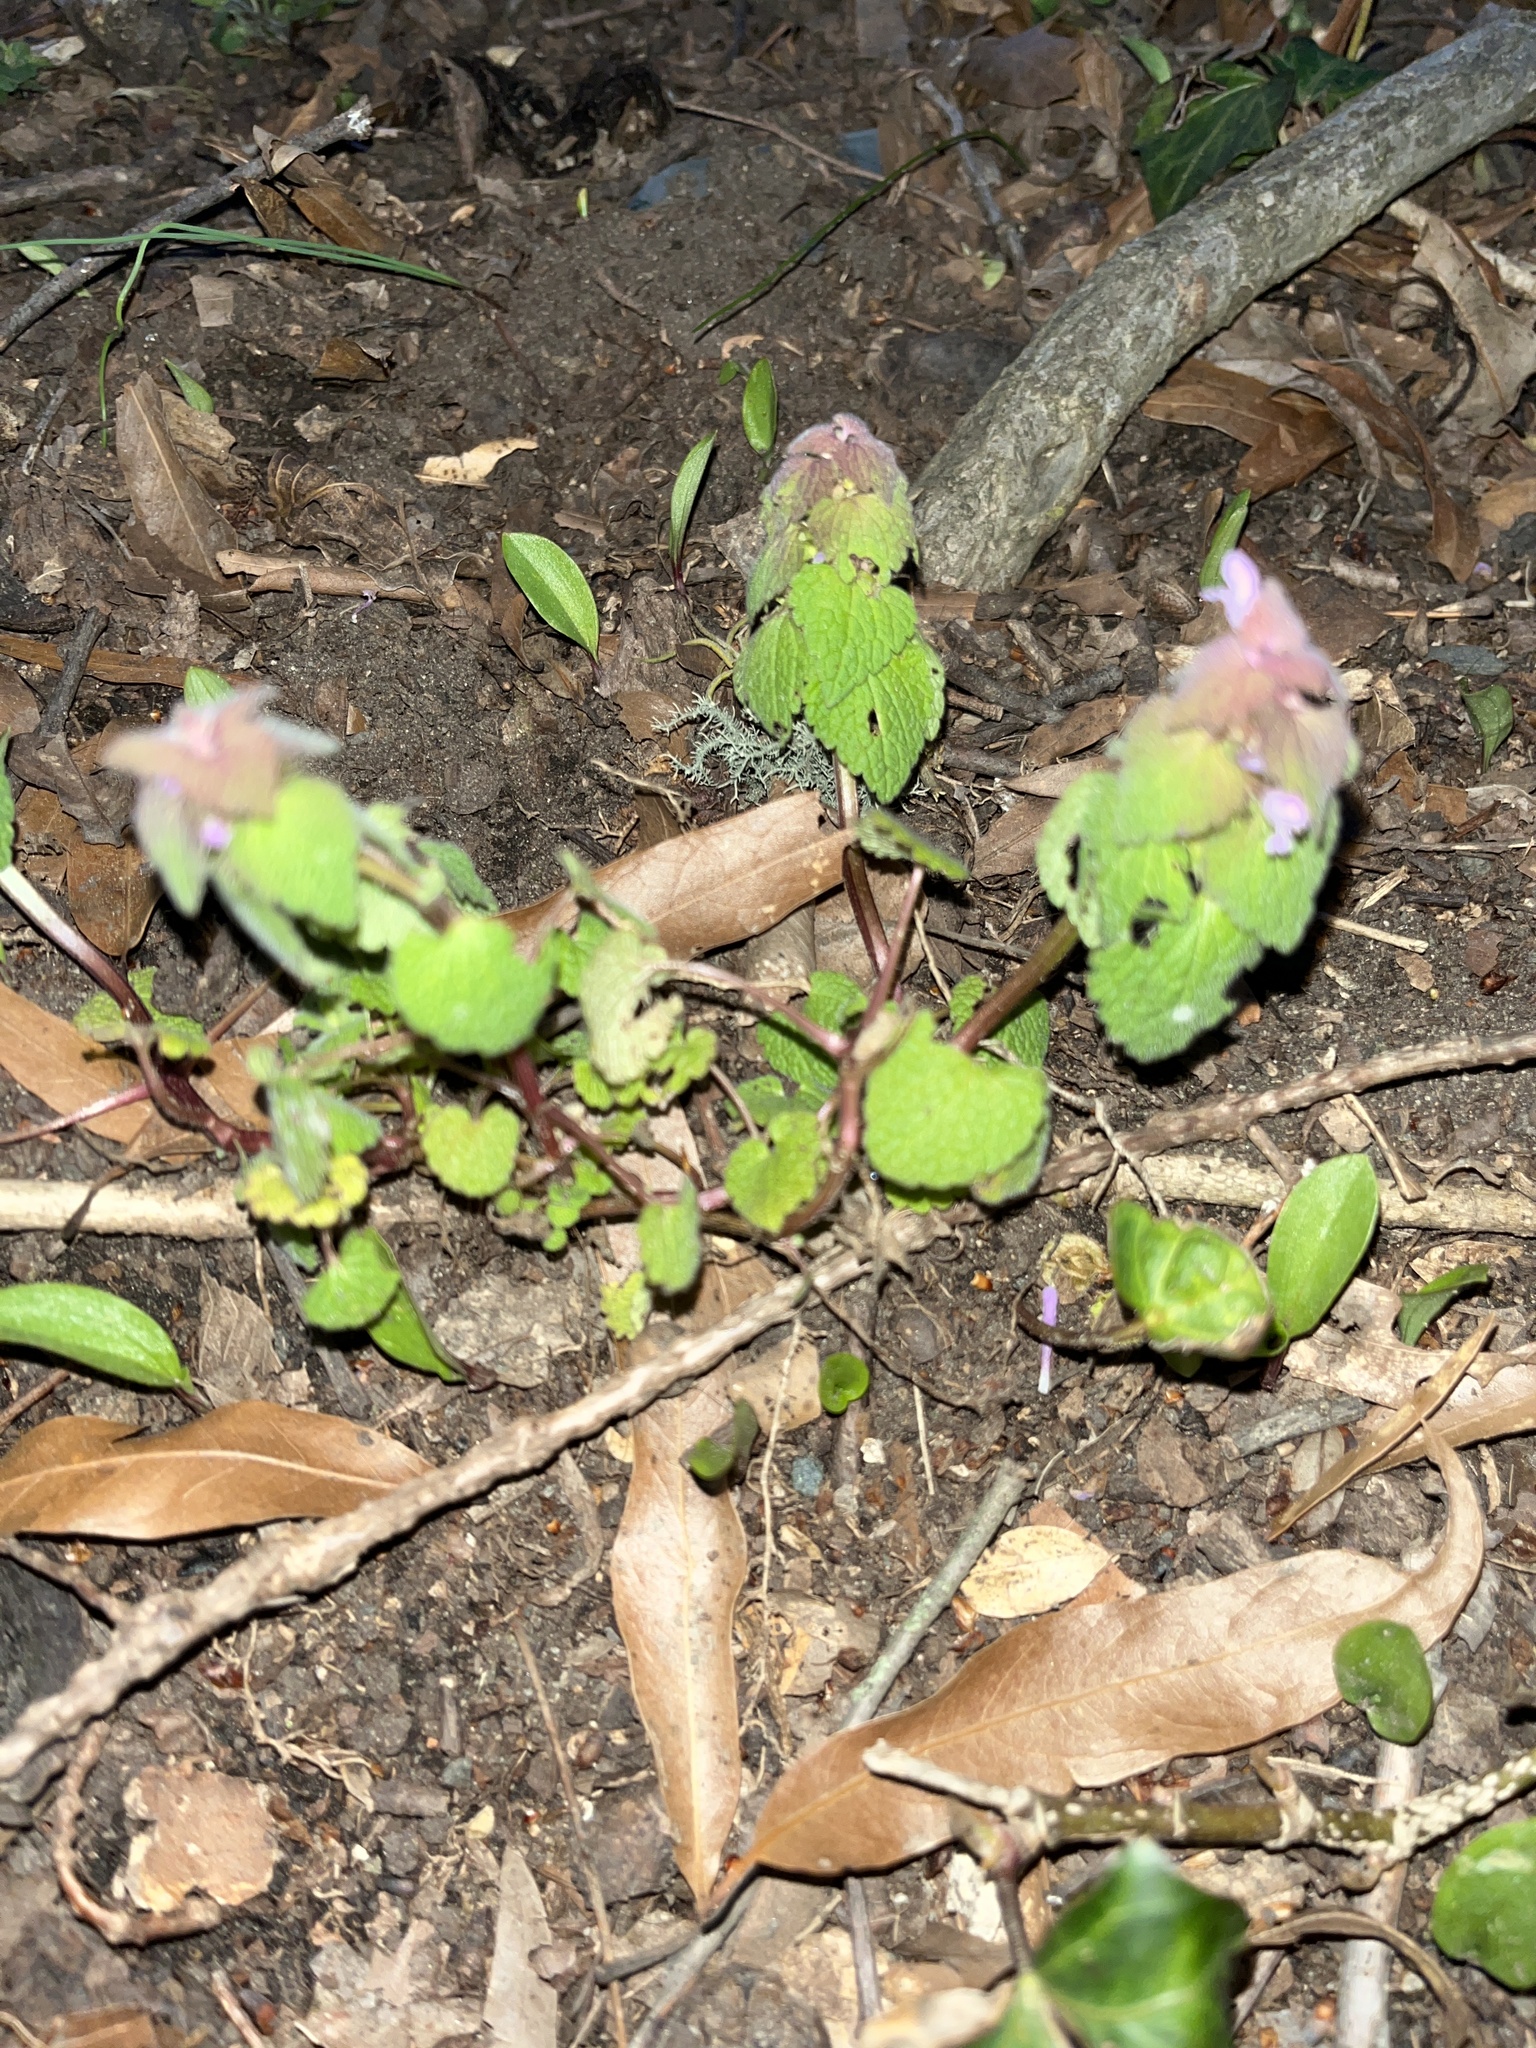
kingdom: Plantae
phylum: Tracheophyta
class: Magnoliopsida
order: Lamiales
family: Lamiaceae
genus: Lamium
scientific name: Lamium purpureum
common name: Red dead-nettle
